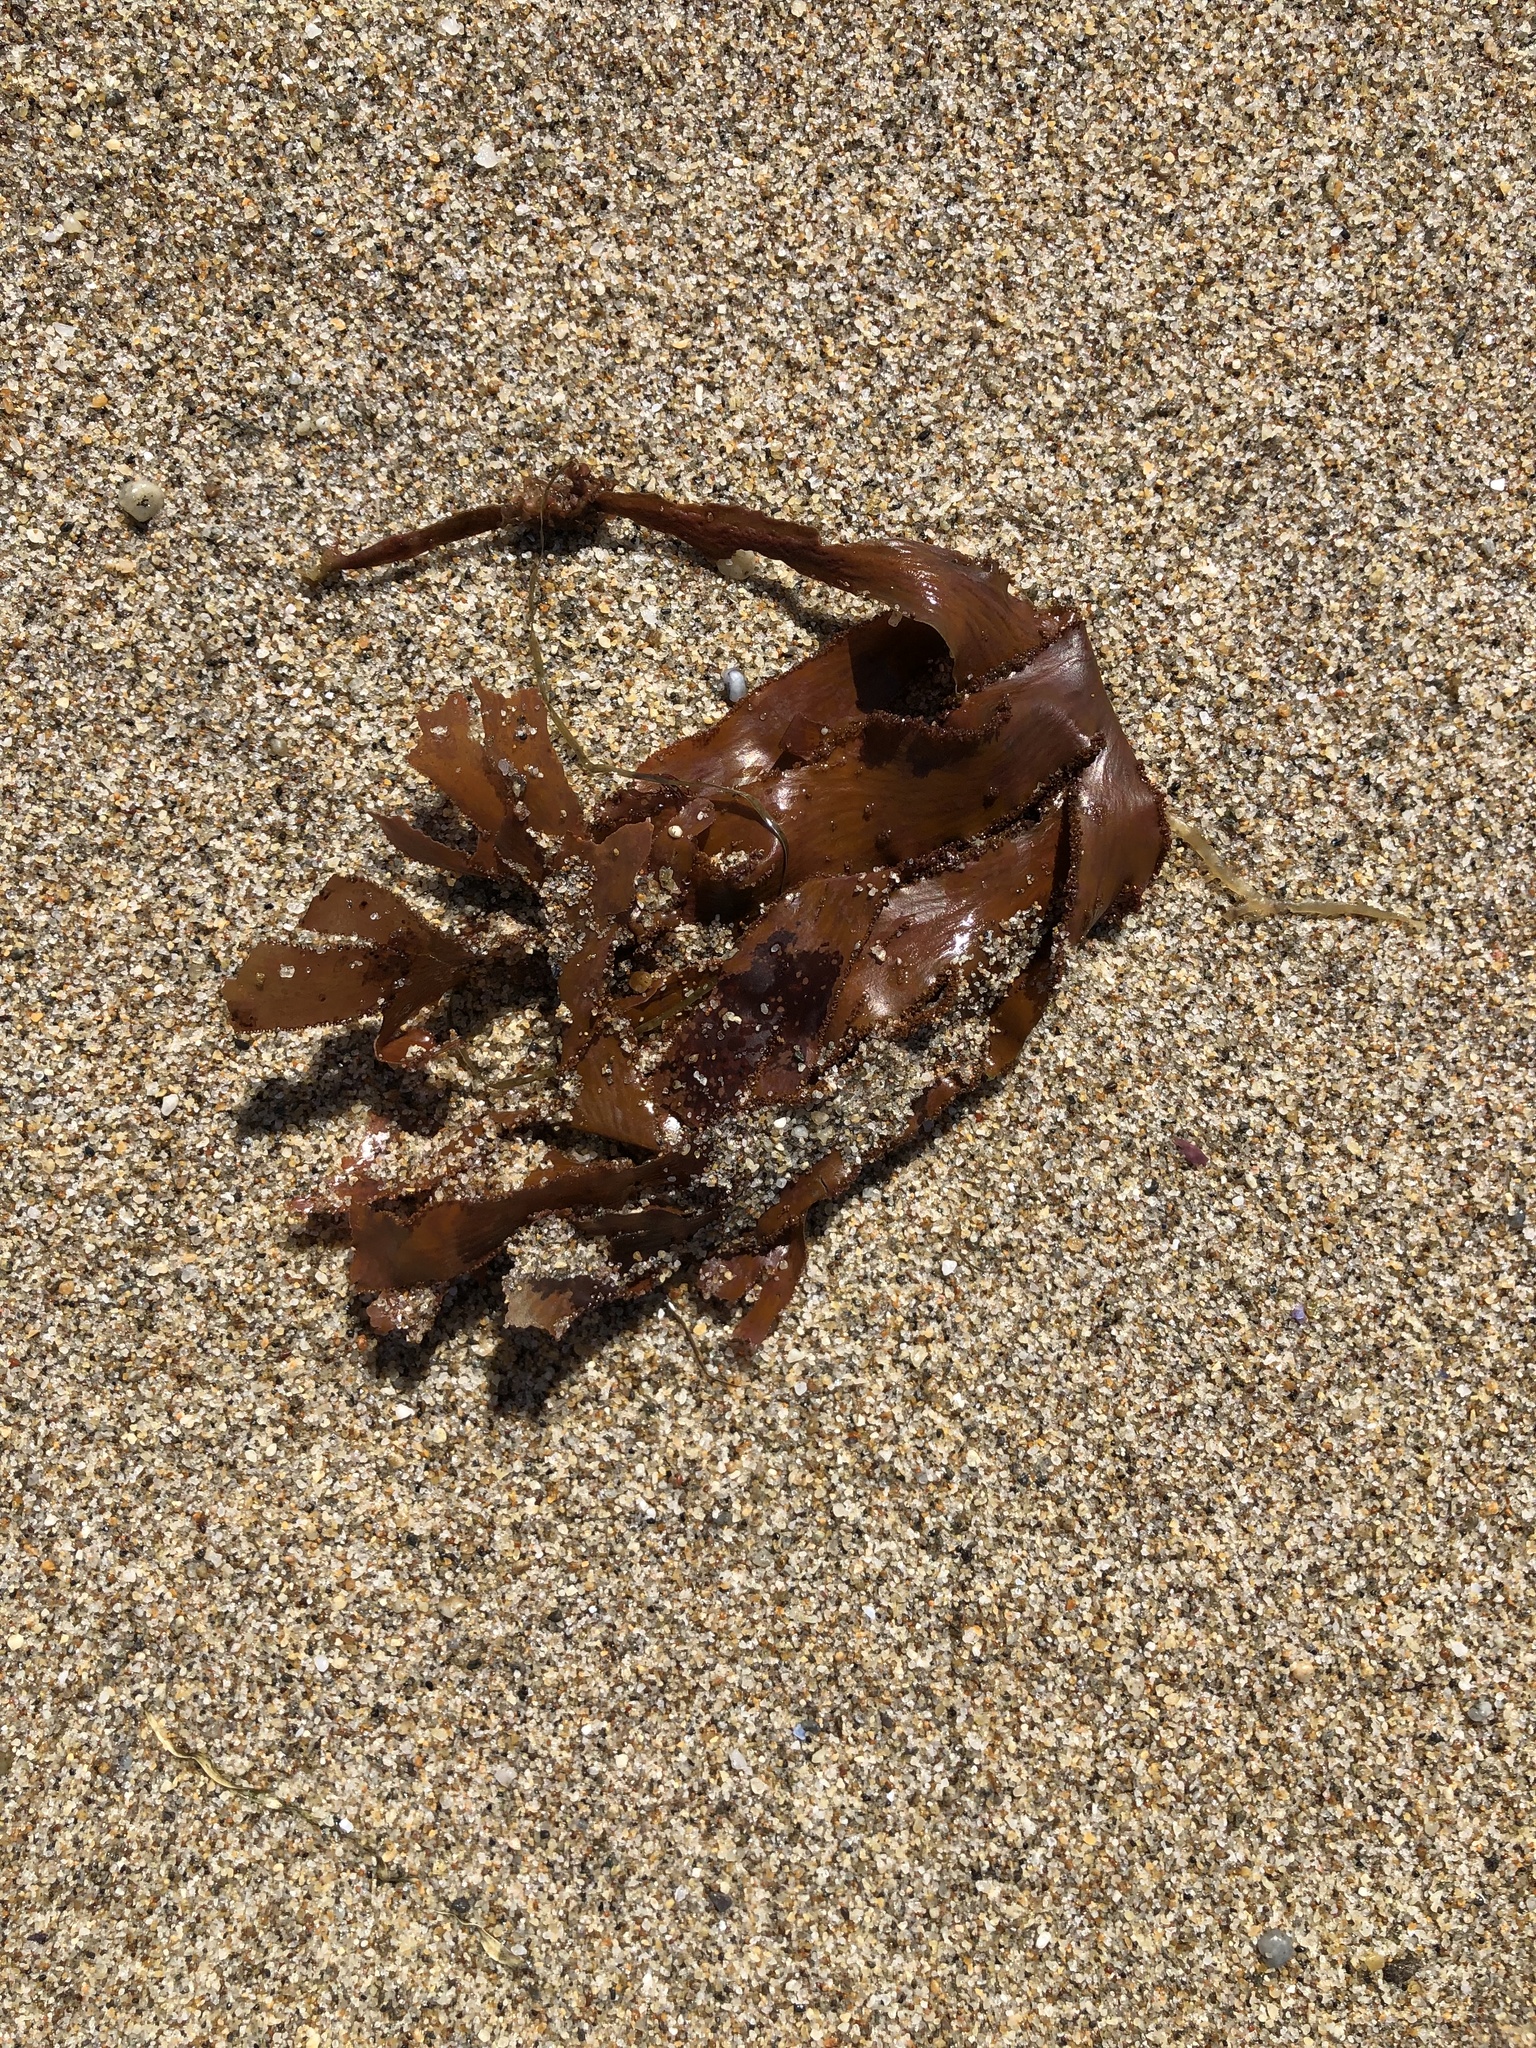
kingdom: Plantae
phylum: Rhodophyta
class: Florideophyceae
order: Ceramiales
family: Delesseriaceae
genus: Cryptopleura
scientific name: Cryptopleura ruprechtiana
